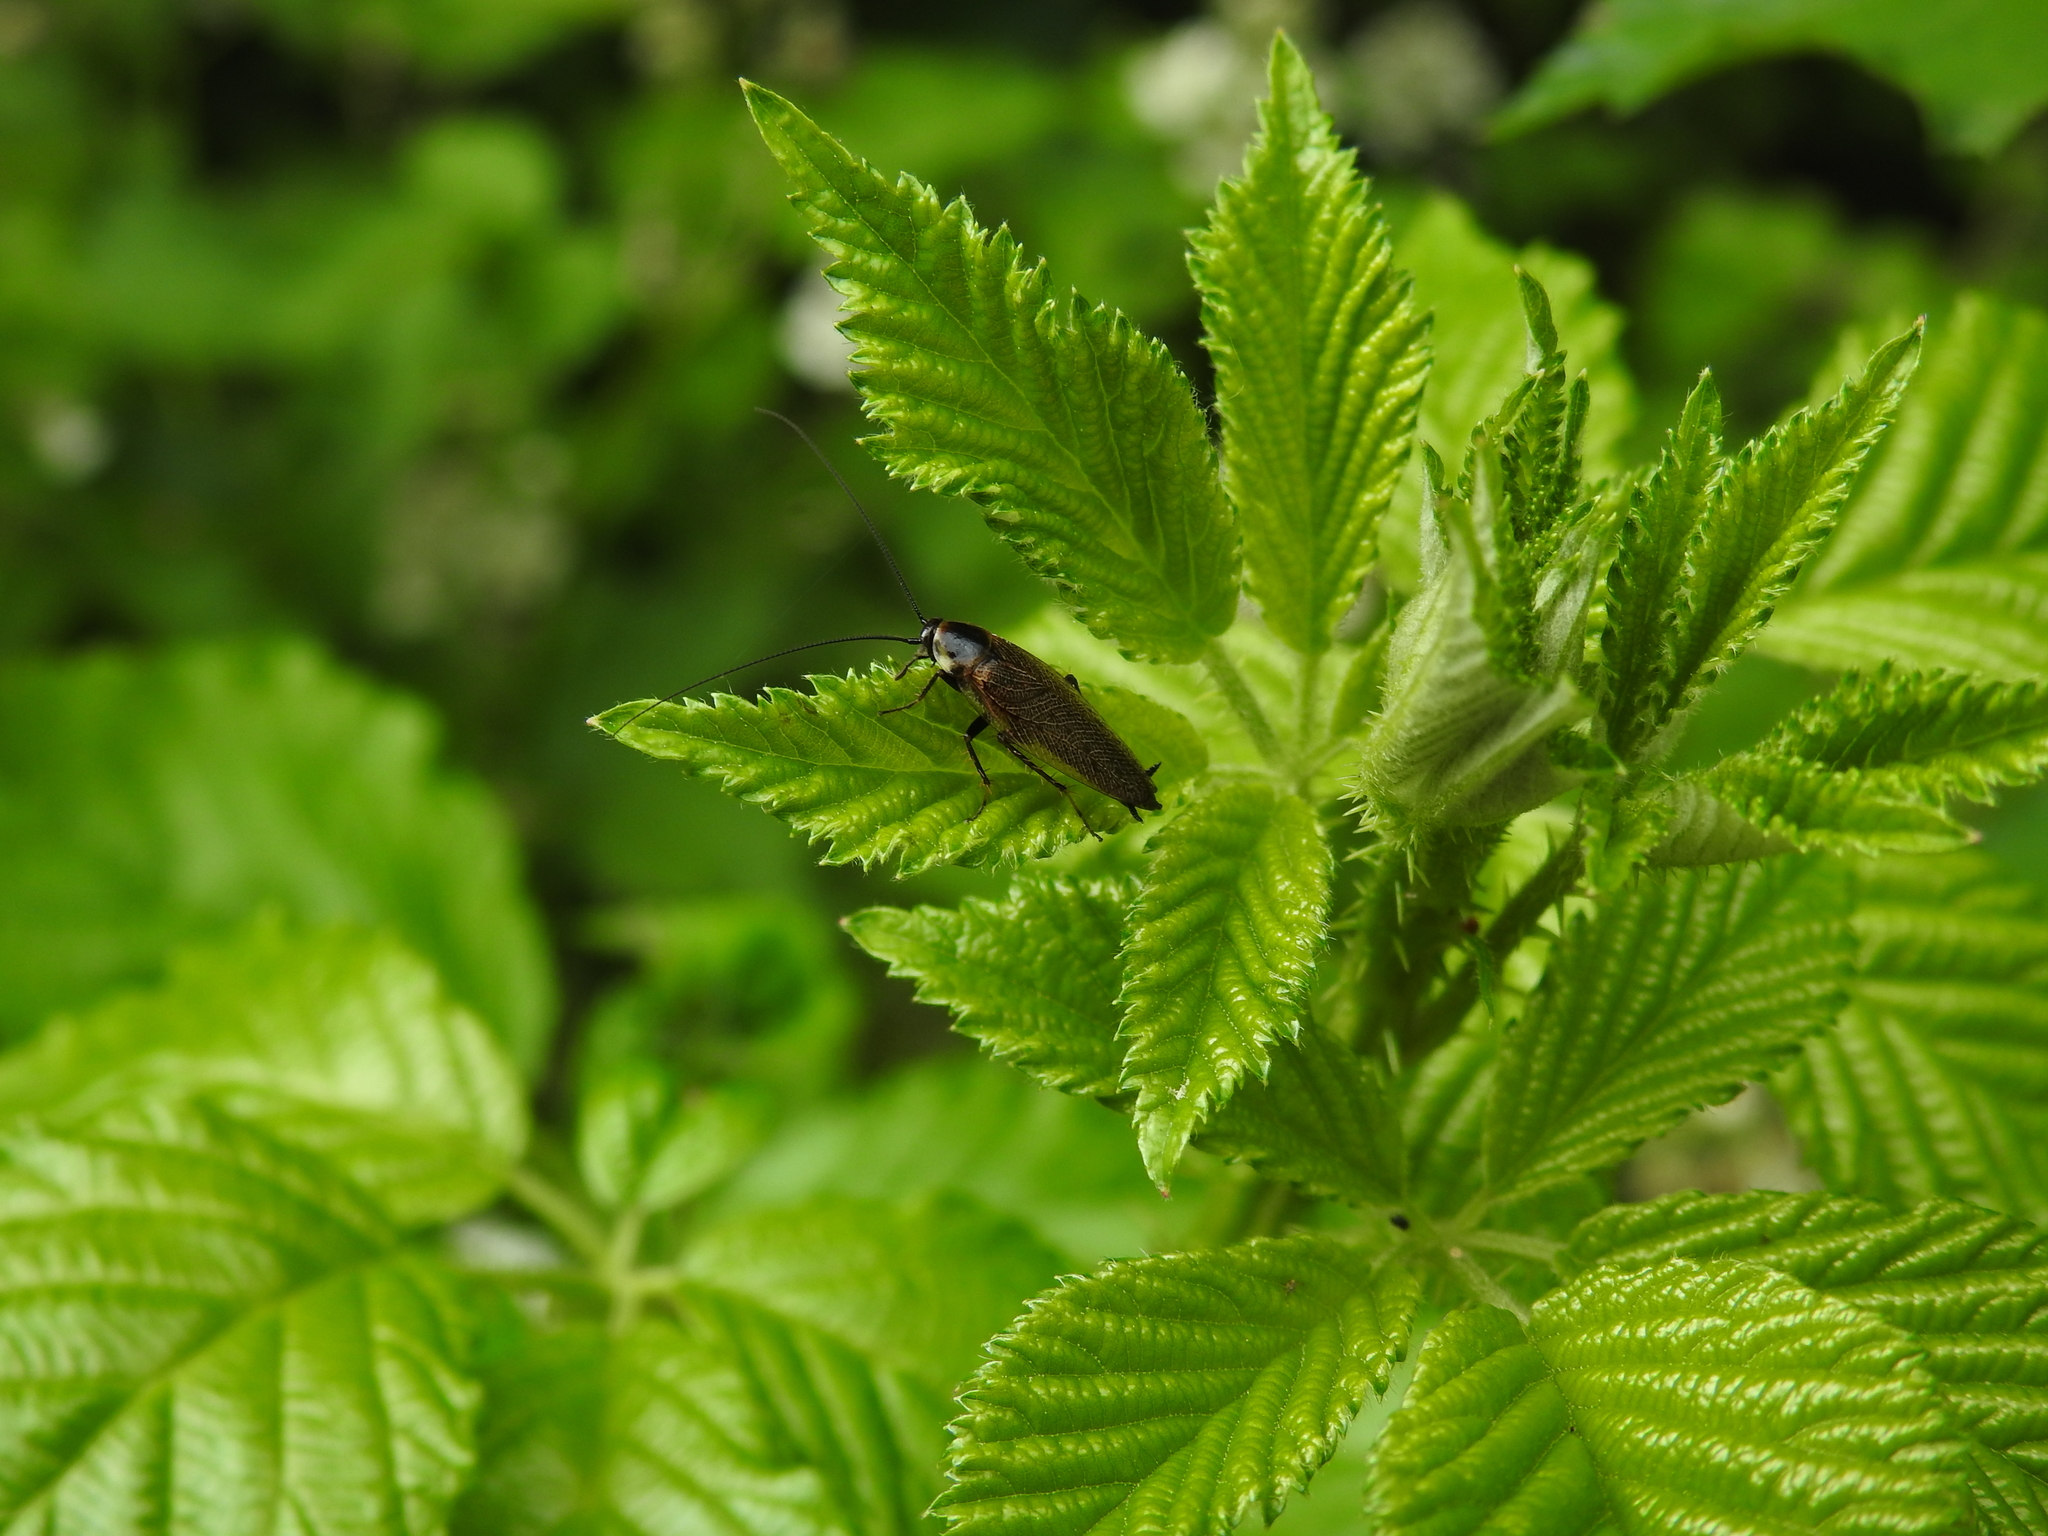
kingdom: Animalia
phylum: Arthropoda
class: Insecta
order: Blattodea
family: Ectobiidae
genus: Ectobius
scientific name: Ectobius lapponicus
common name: Dusky cockroach
